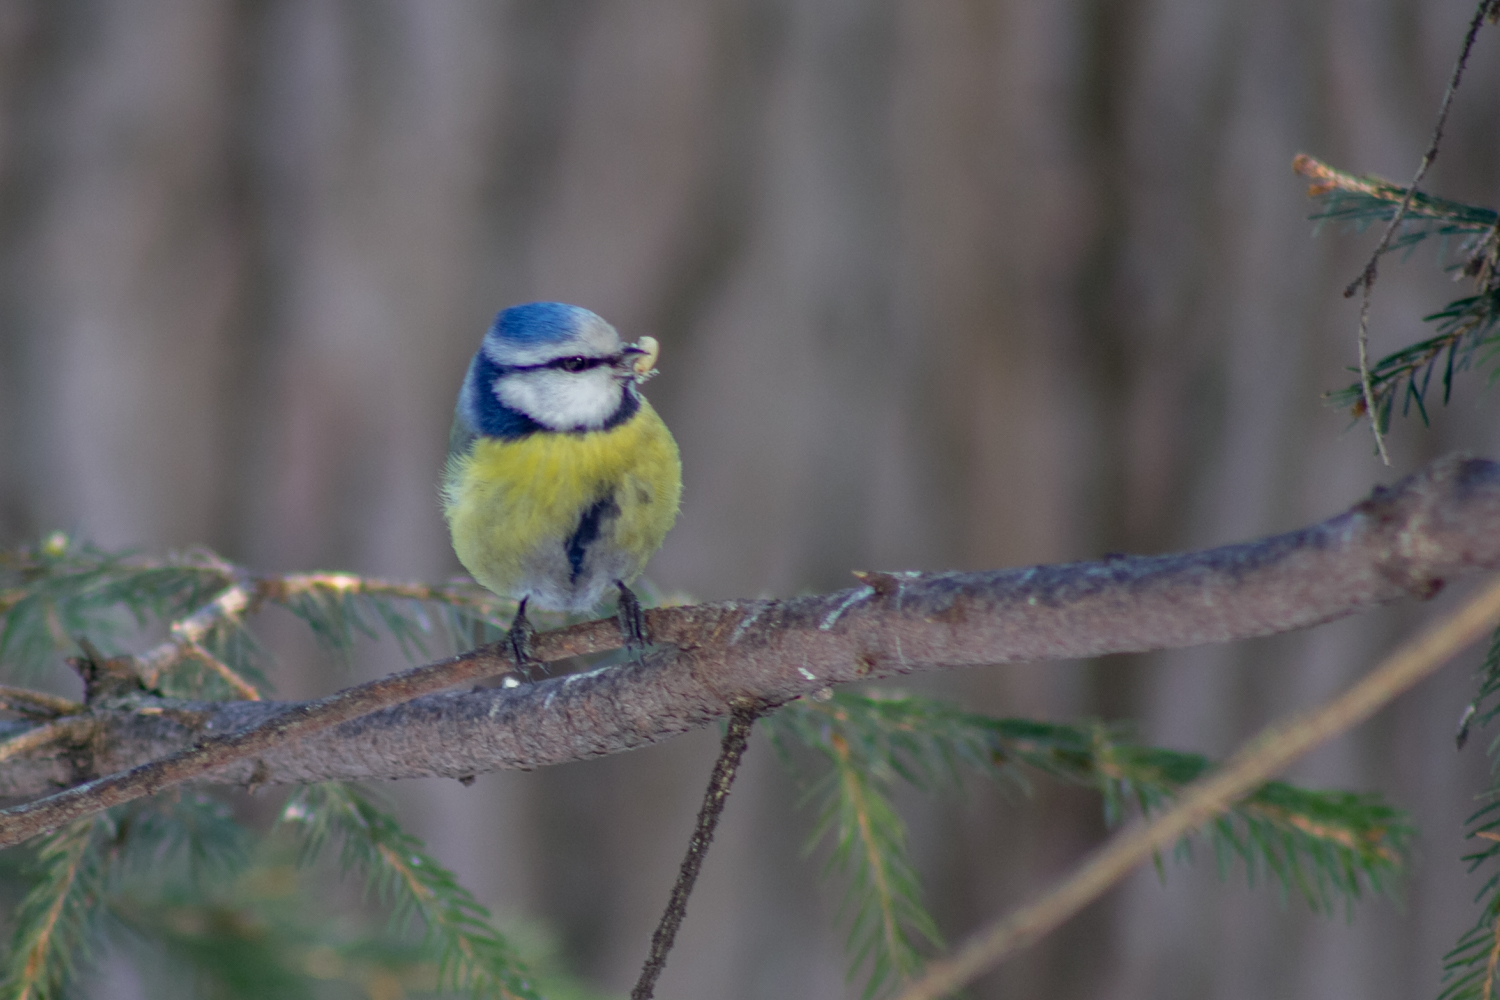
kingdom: Animalia
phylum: Chordata
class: Aves
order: Passeriformes
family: Paridae
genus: Cyanistes
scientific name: Cyanistes caeruleus
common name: Eurasian blue tit
